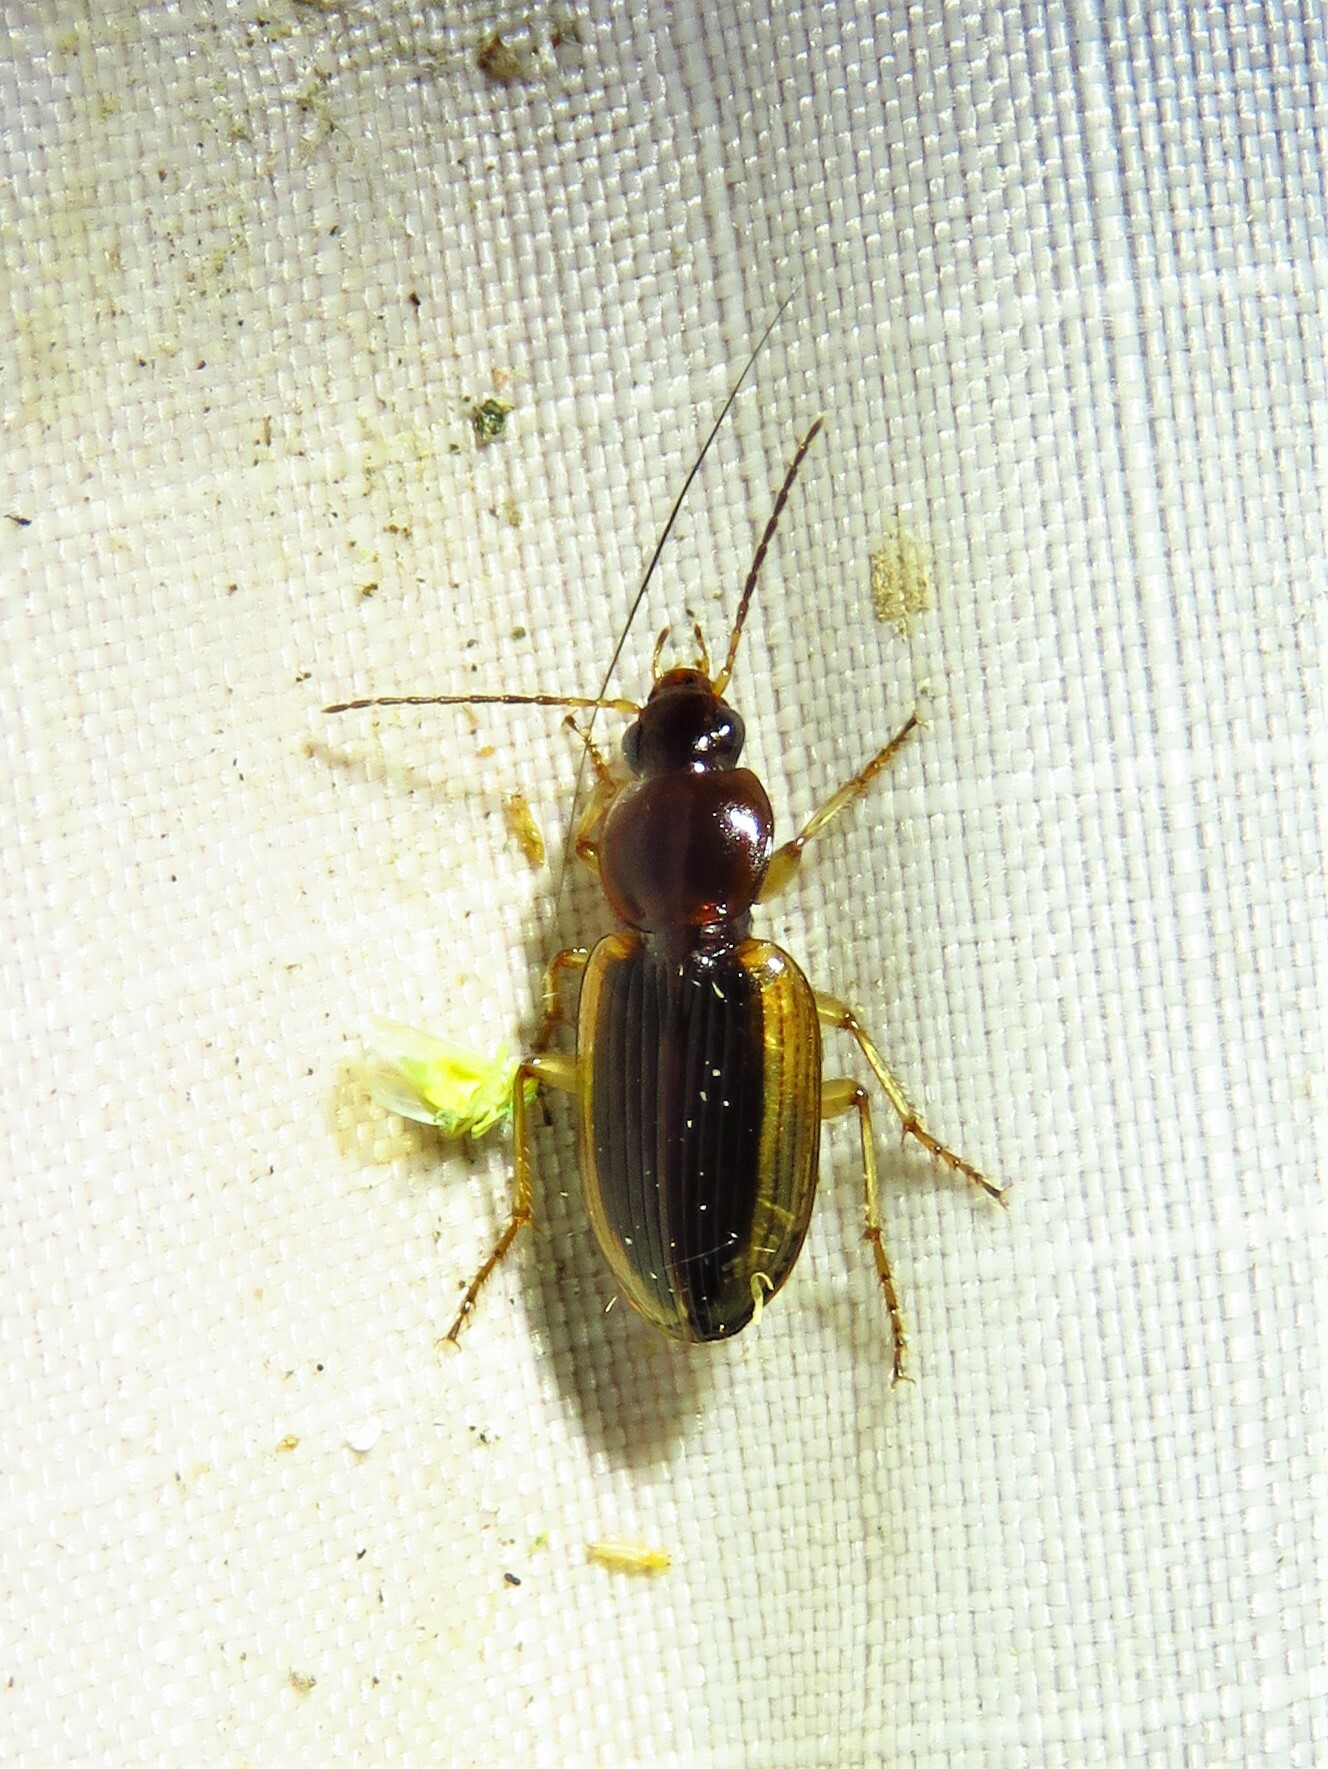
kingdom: Animalia
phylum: Arthropoda
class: Insecta
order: Coleoptera
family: Carabidae
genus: Agonum
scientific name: Agonum pallipes
